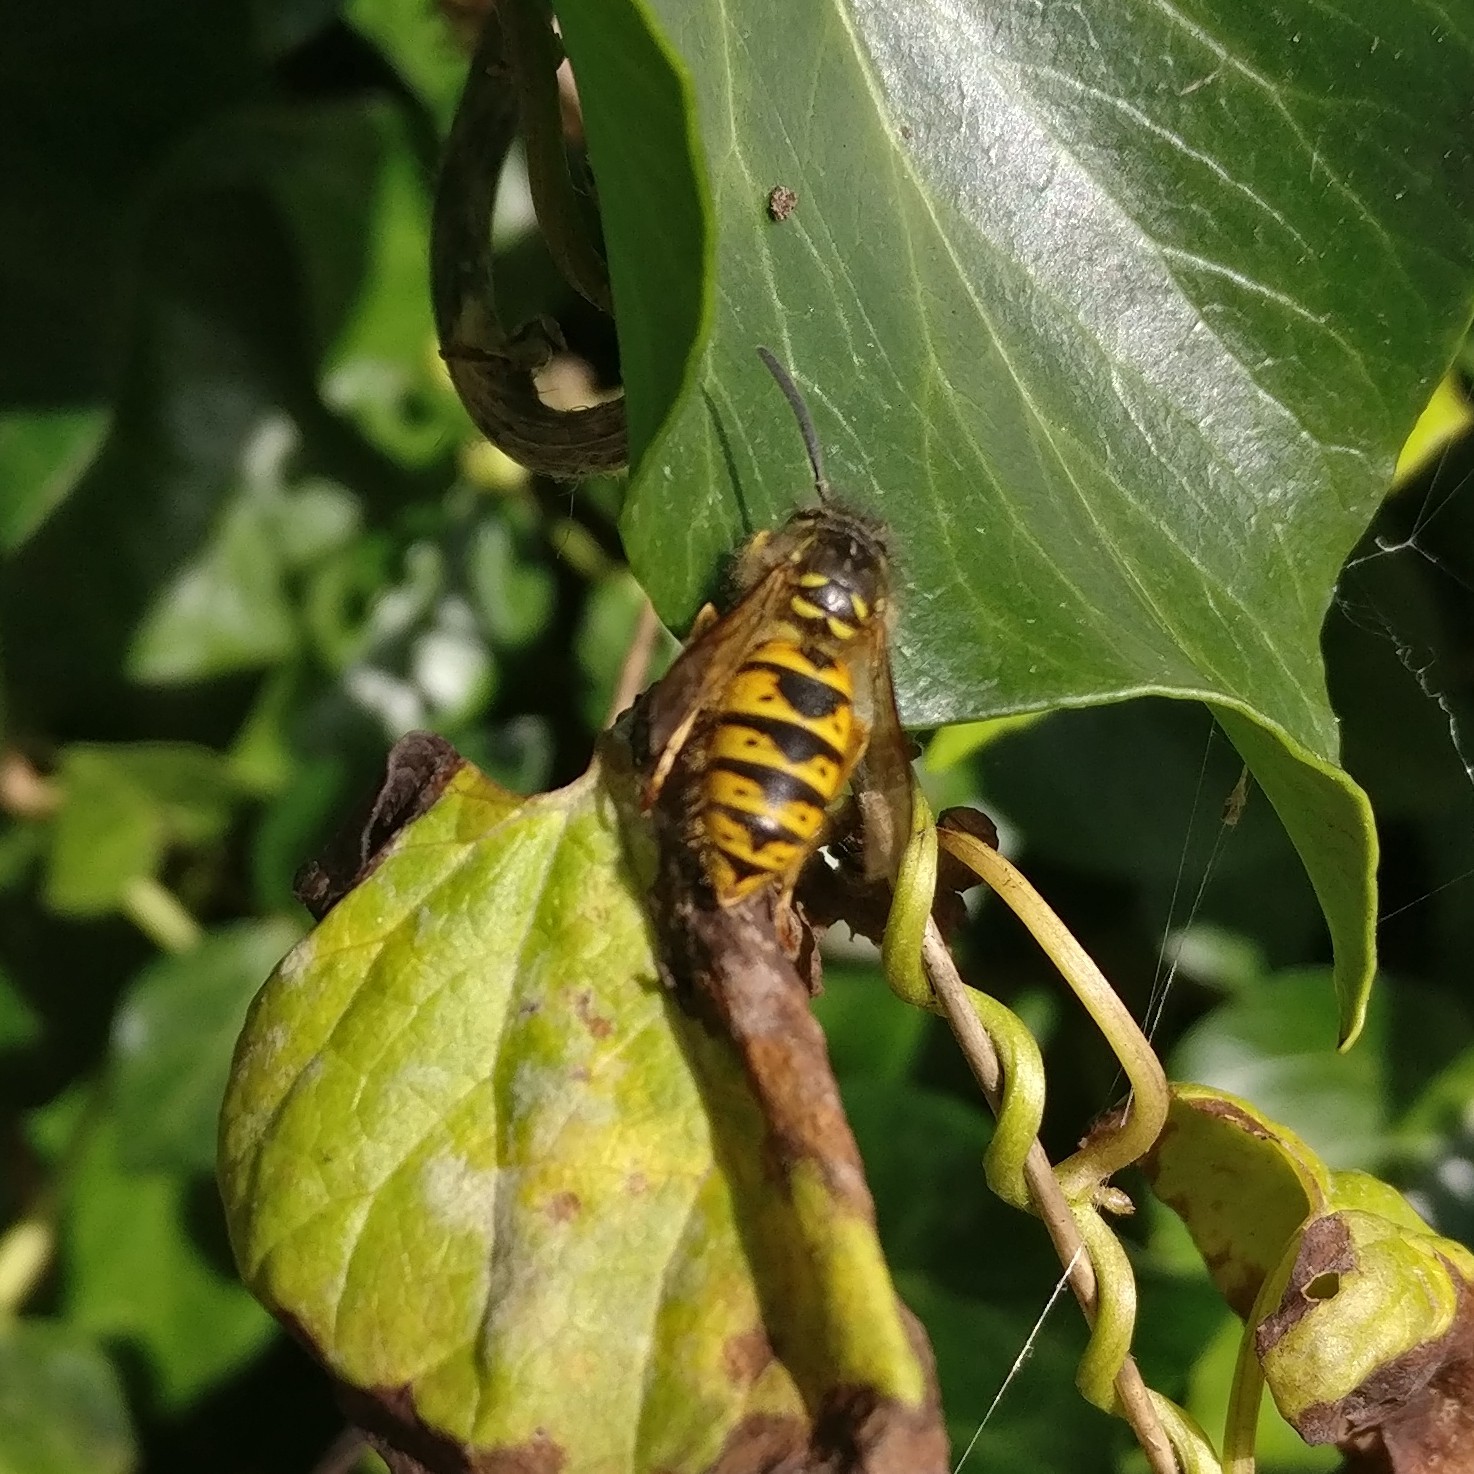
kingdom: Animalia
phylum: Arthropoda
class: Insecta
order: Hymenoptera
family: Vespidae
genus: Vespula
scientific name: Vespula vulgaris
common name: Common wasp
